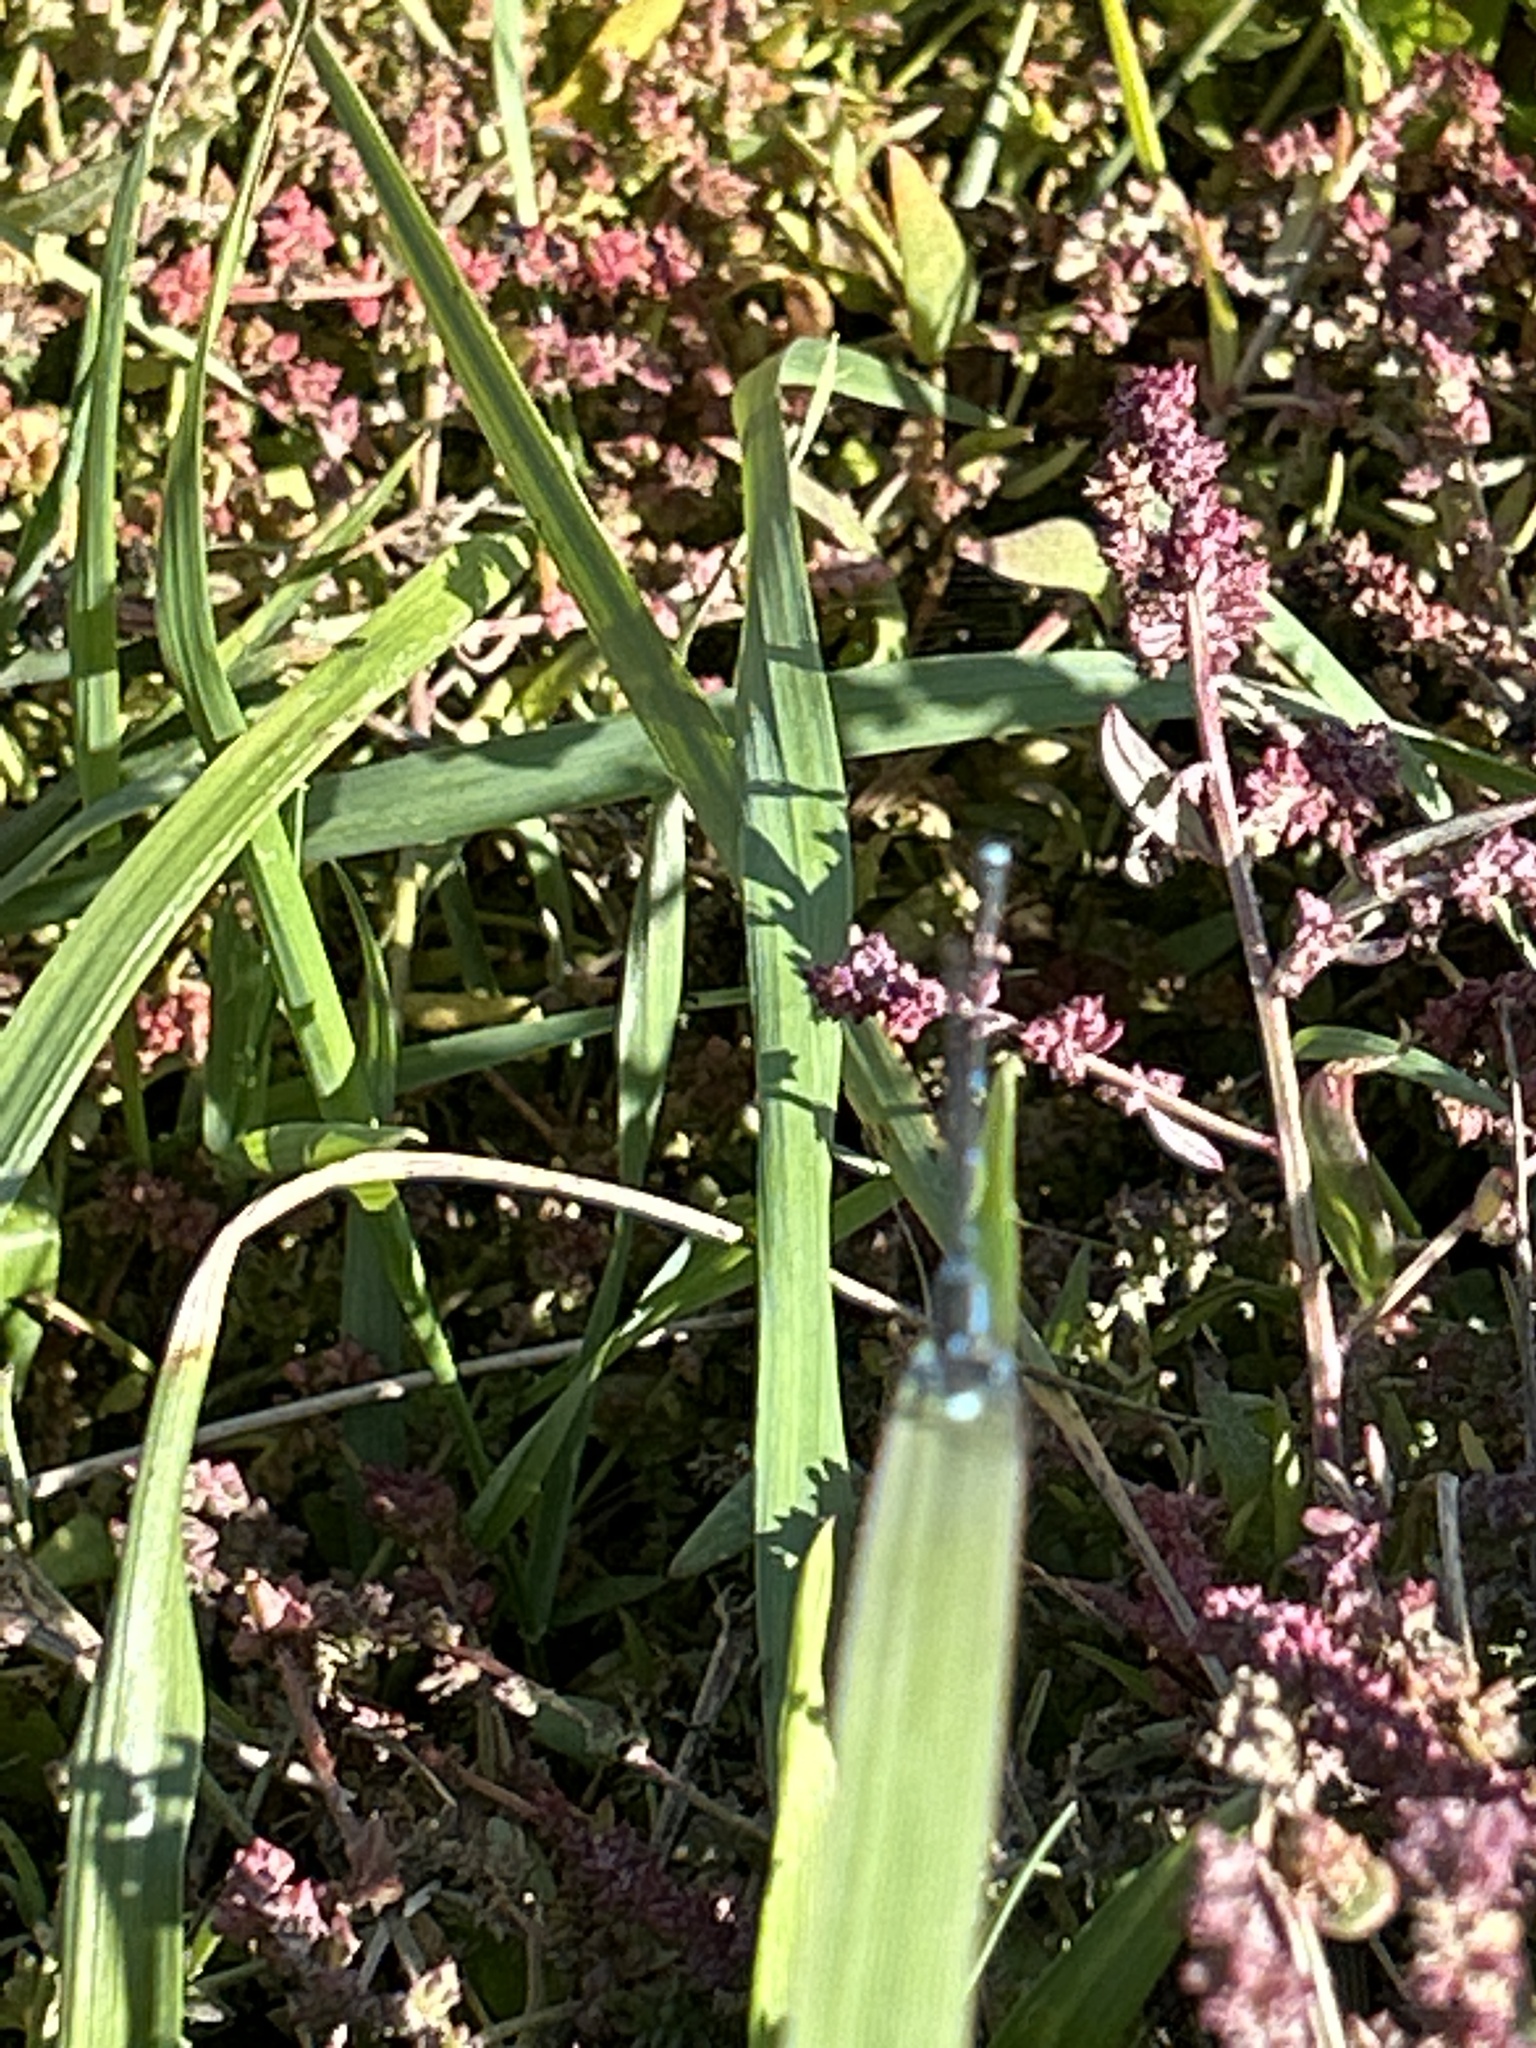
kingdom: Animalia
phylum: Arthropoda
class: Insecta
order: Odonata
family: Lestidae
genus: Austrolestes
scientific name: Austrolestes colensonis
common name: Blue damselfly
